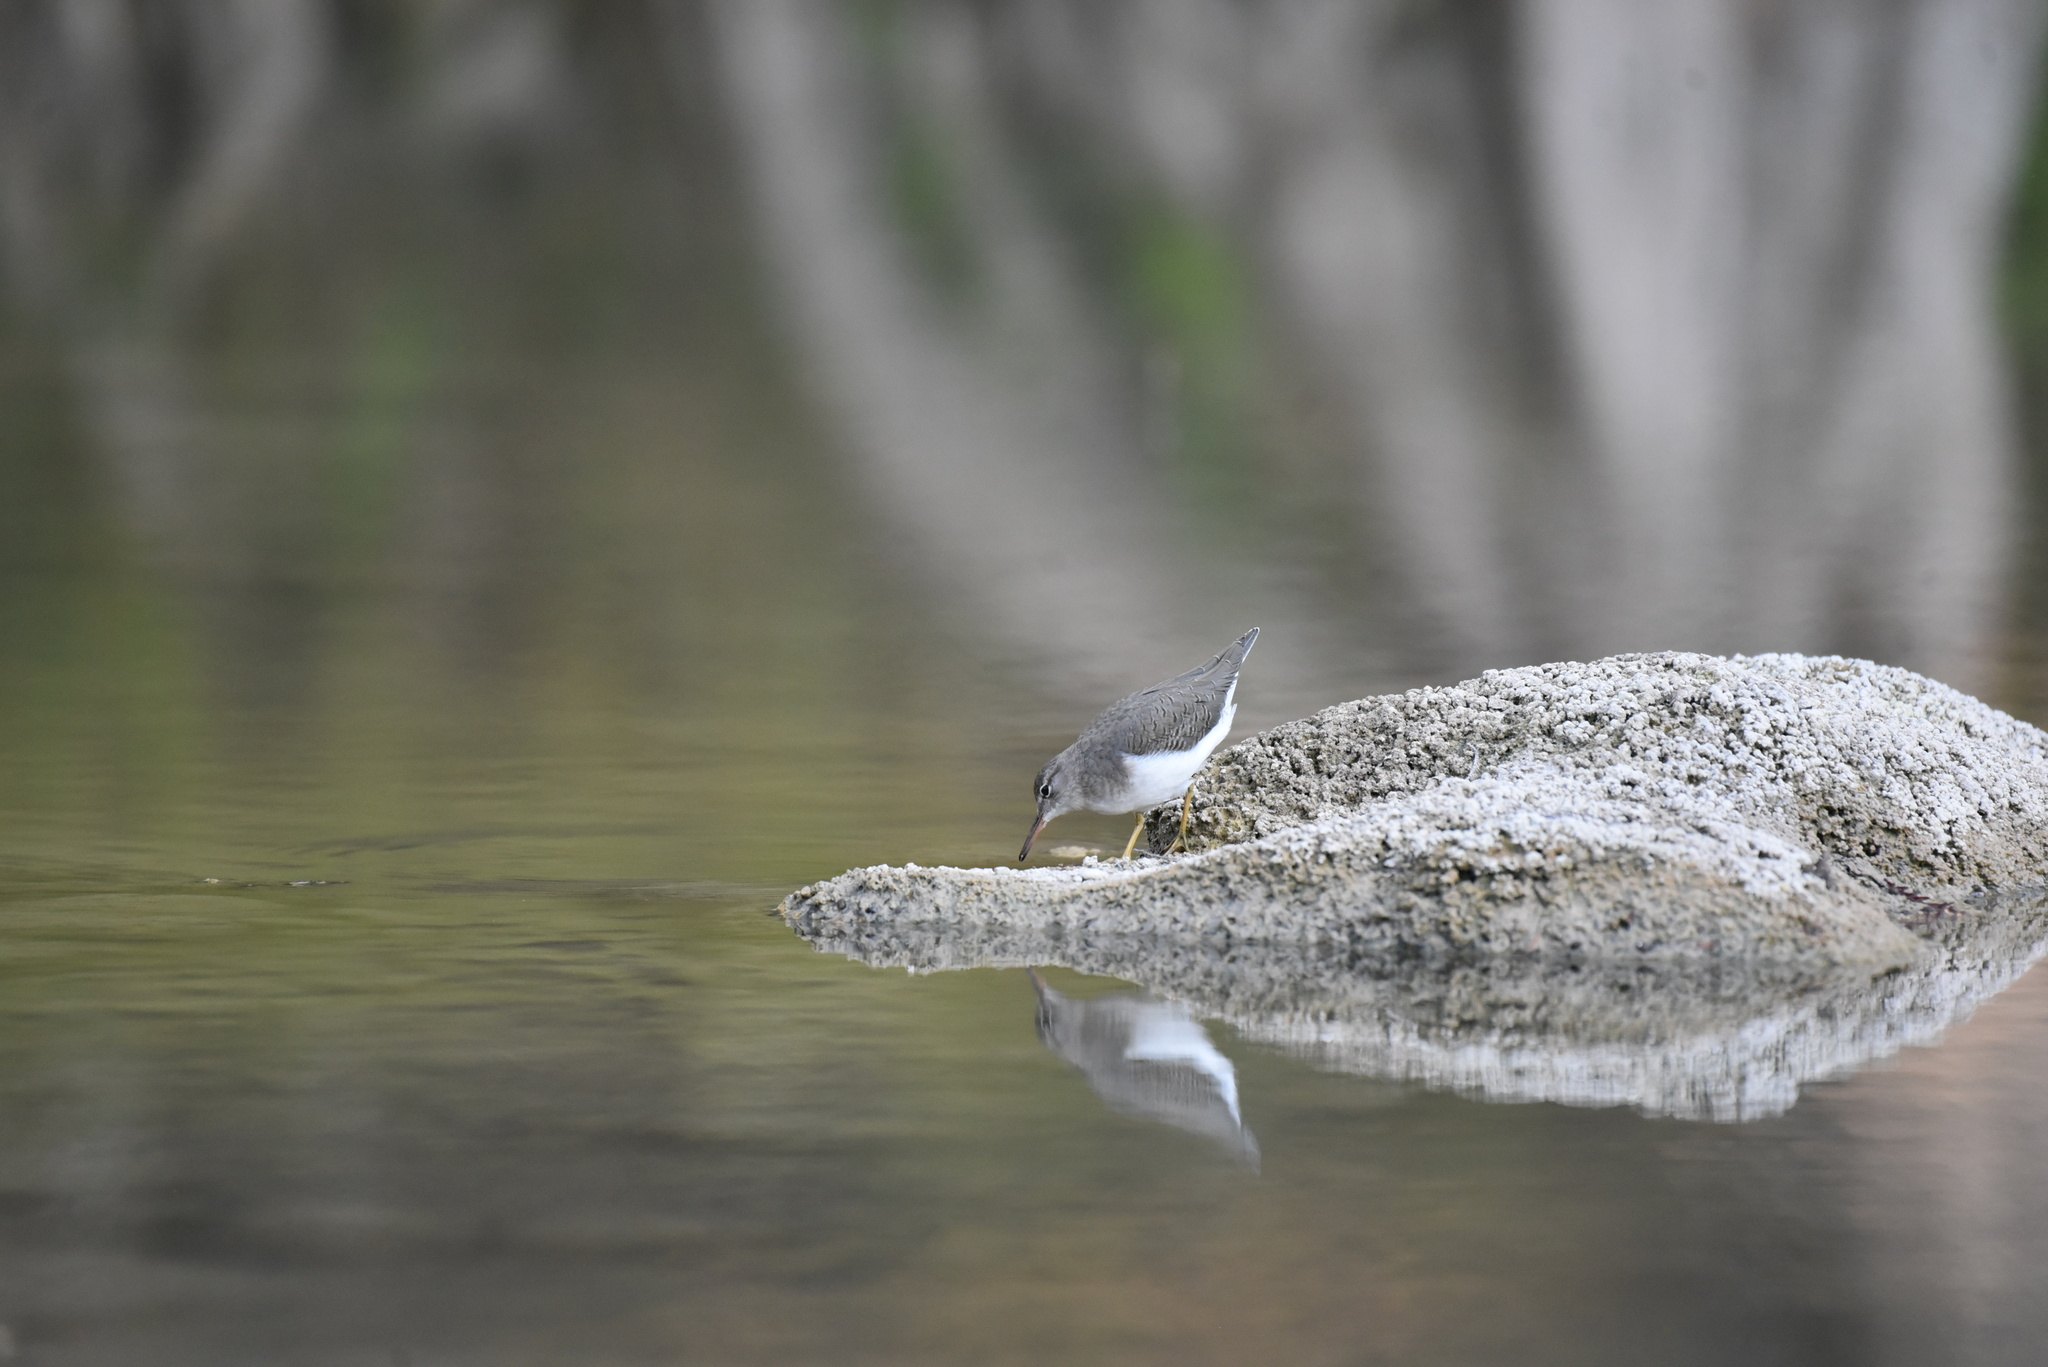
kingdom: Animalia
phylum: Chordata
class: Aves
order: Charadriiformes
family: Scolopacidae
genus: Actitis
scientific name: Actitis macularius
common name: Spotted sandpiper
